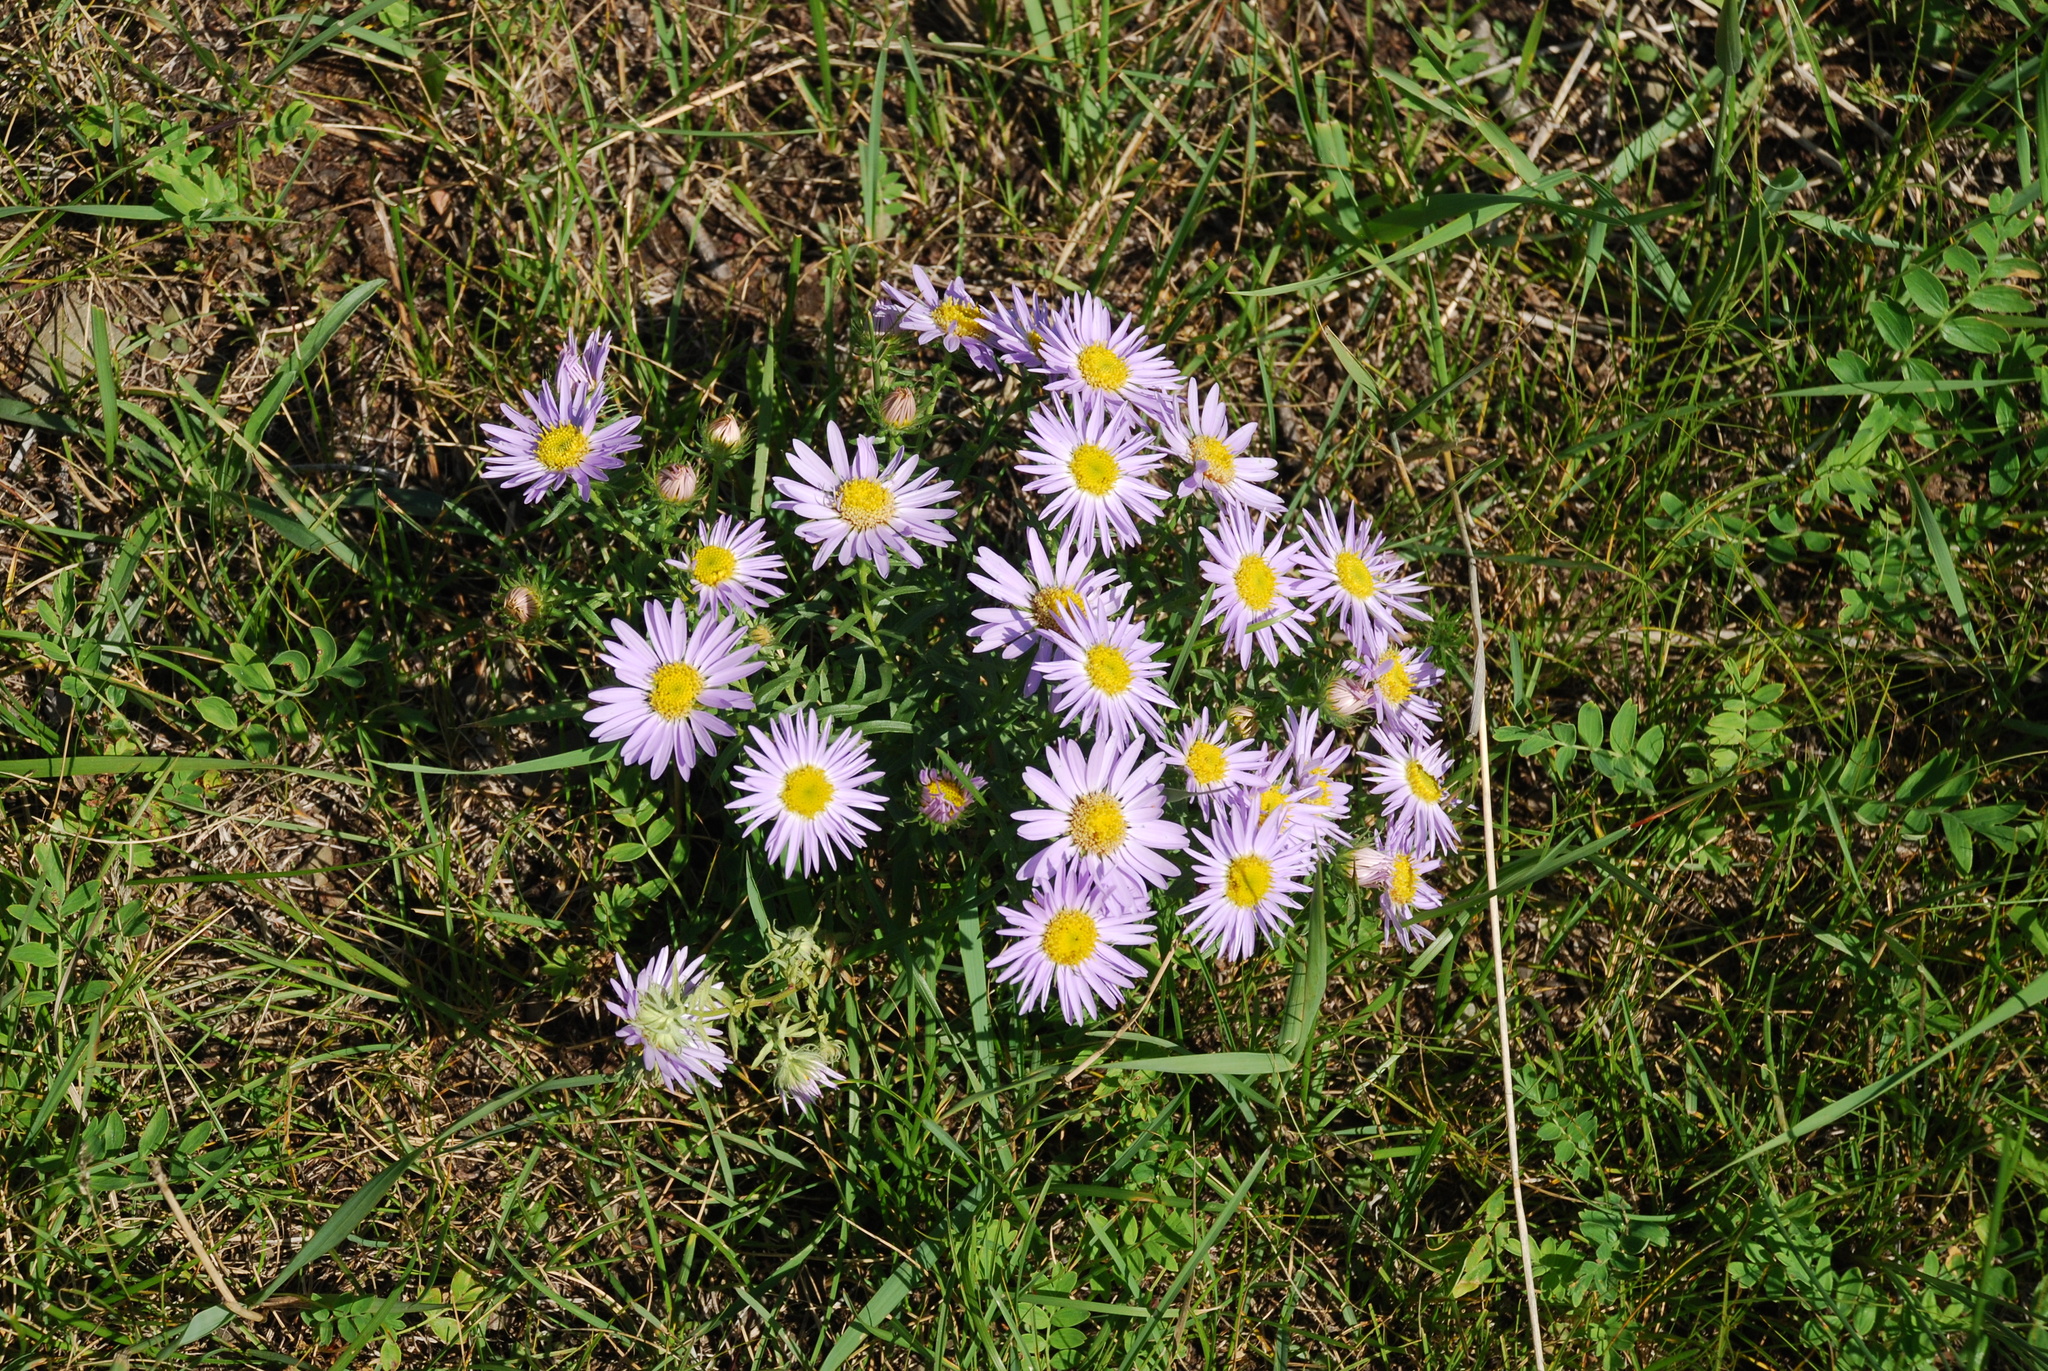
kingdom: Plantae
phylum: Tracheophyta
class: Magnoliopsida
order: Asterales
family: Asteraceae
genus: Aster
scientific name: Aster biennis
